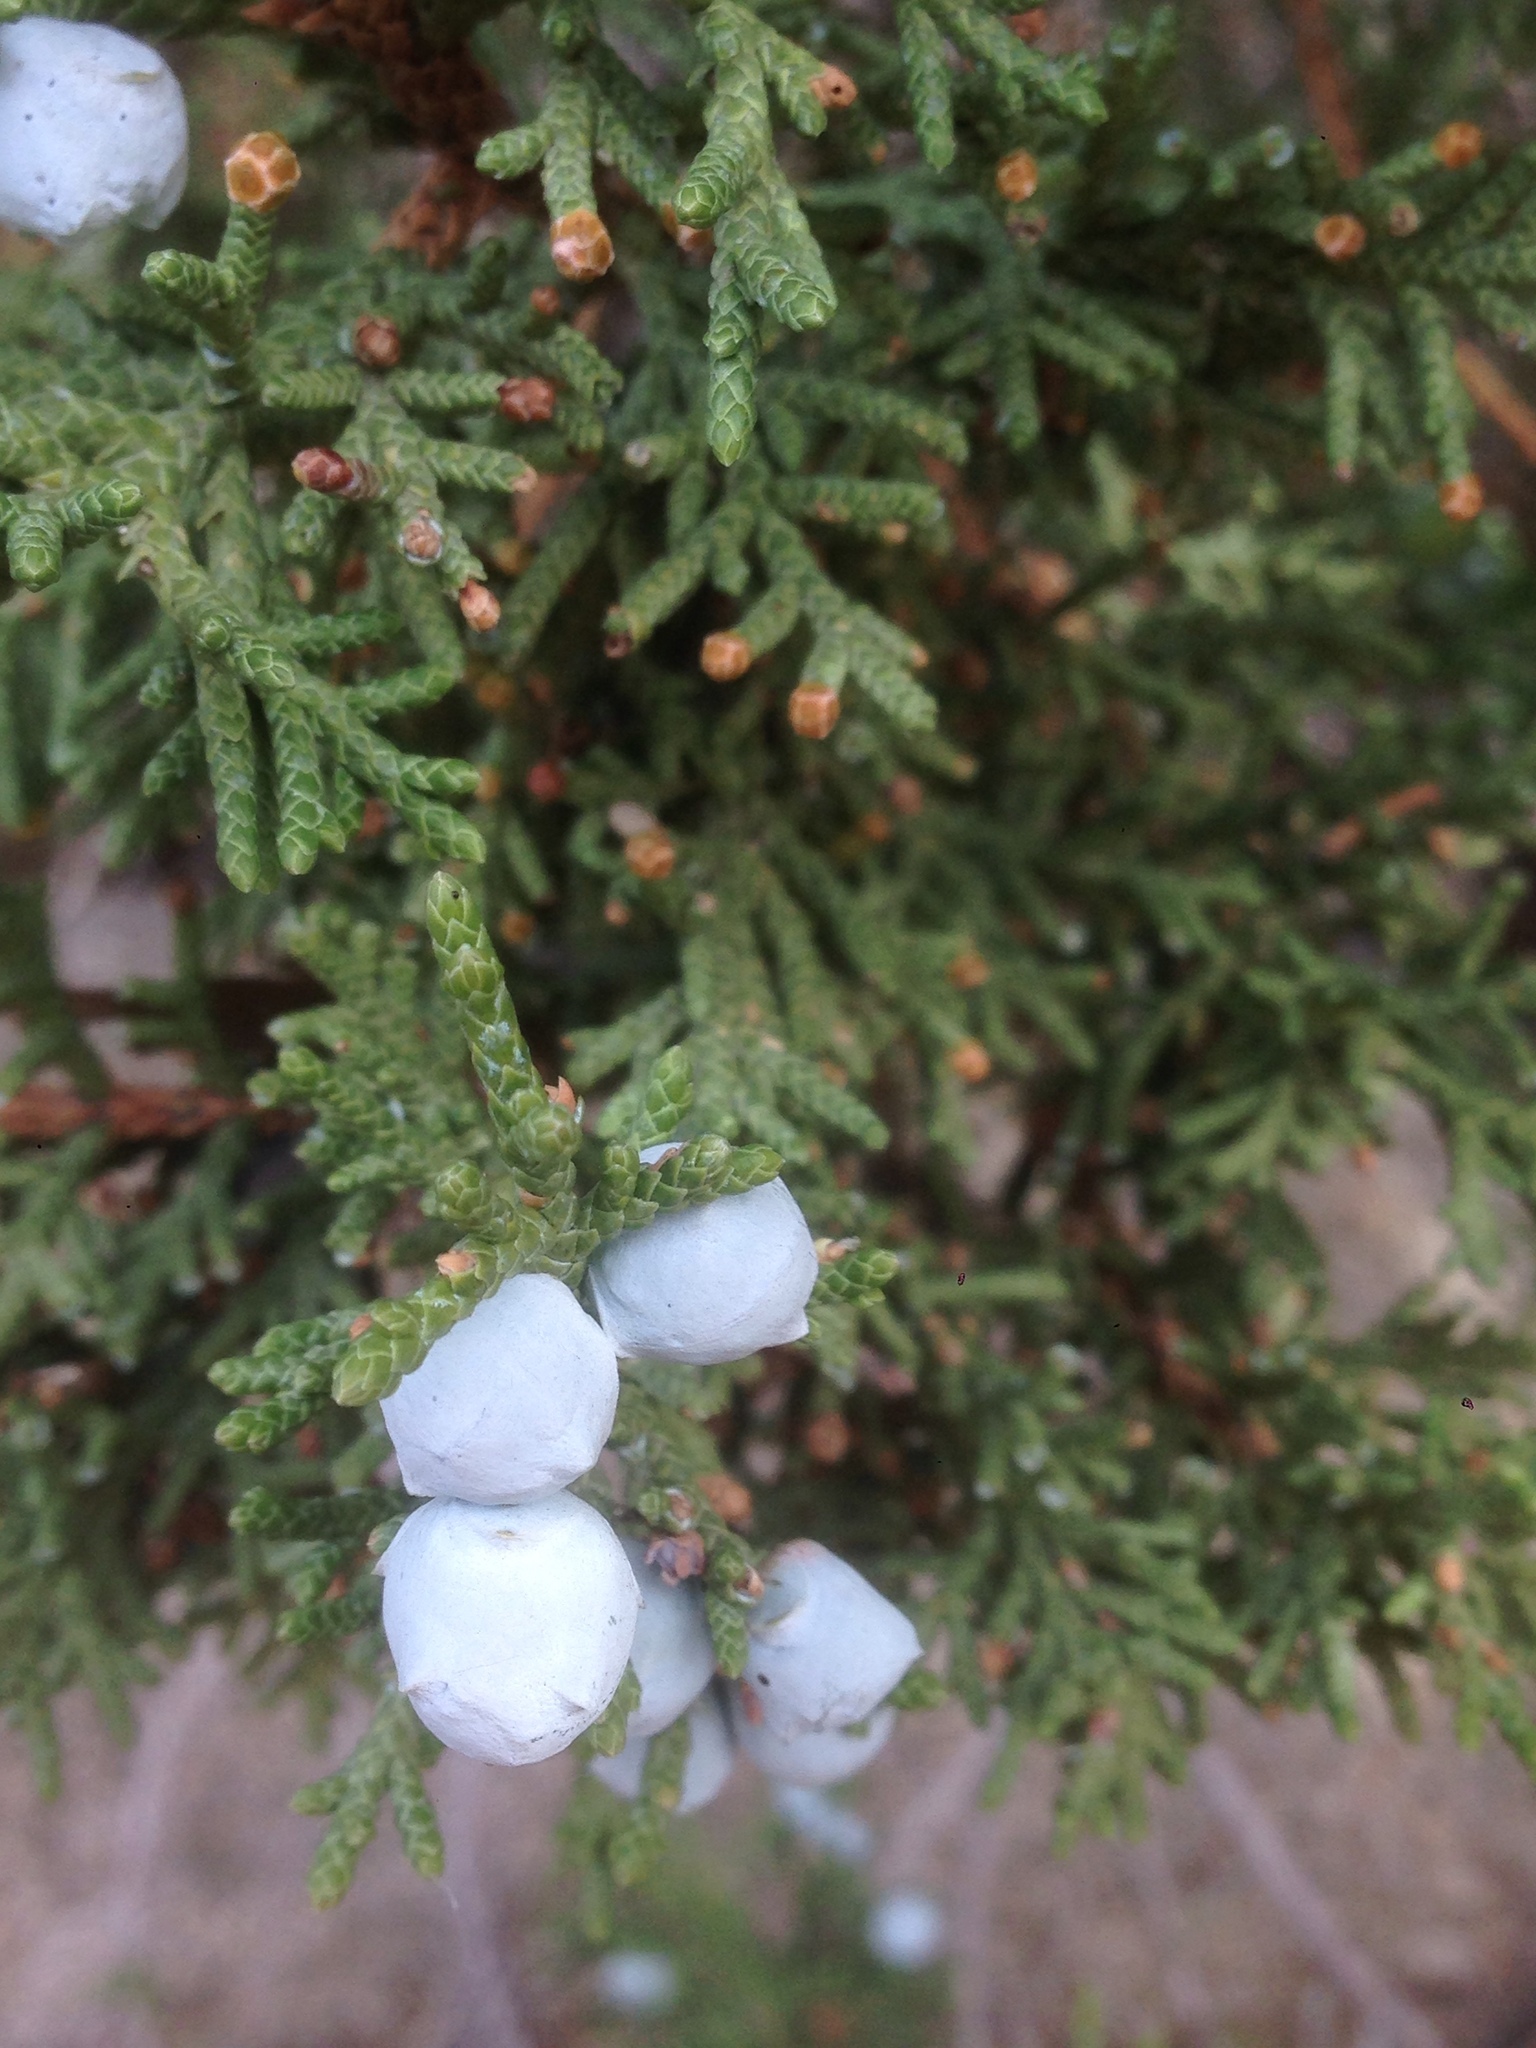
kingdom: Plantae
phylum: Tracheophyta
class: Pinopsida
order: Pinales
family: Cupressaceae
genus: Juniperus
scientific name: Juniperus osteosperma
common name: Utah juniper
